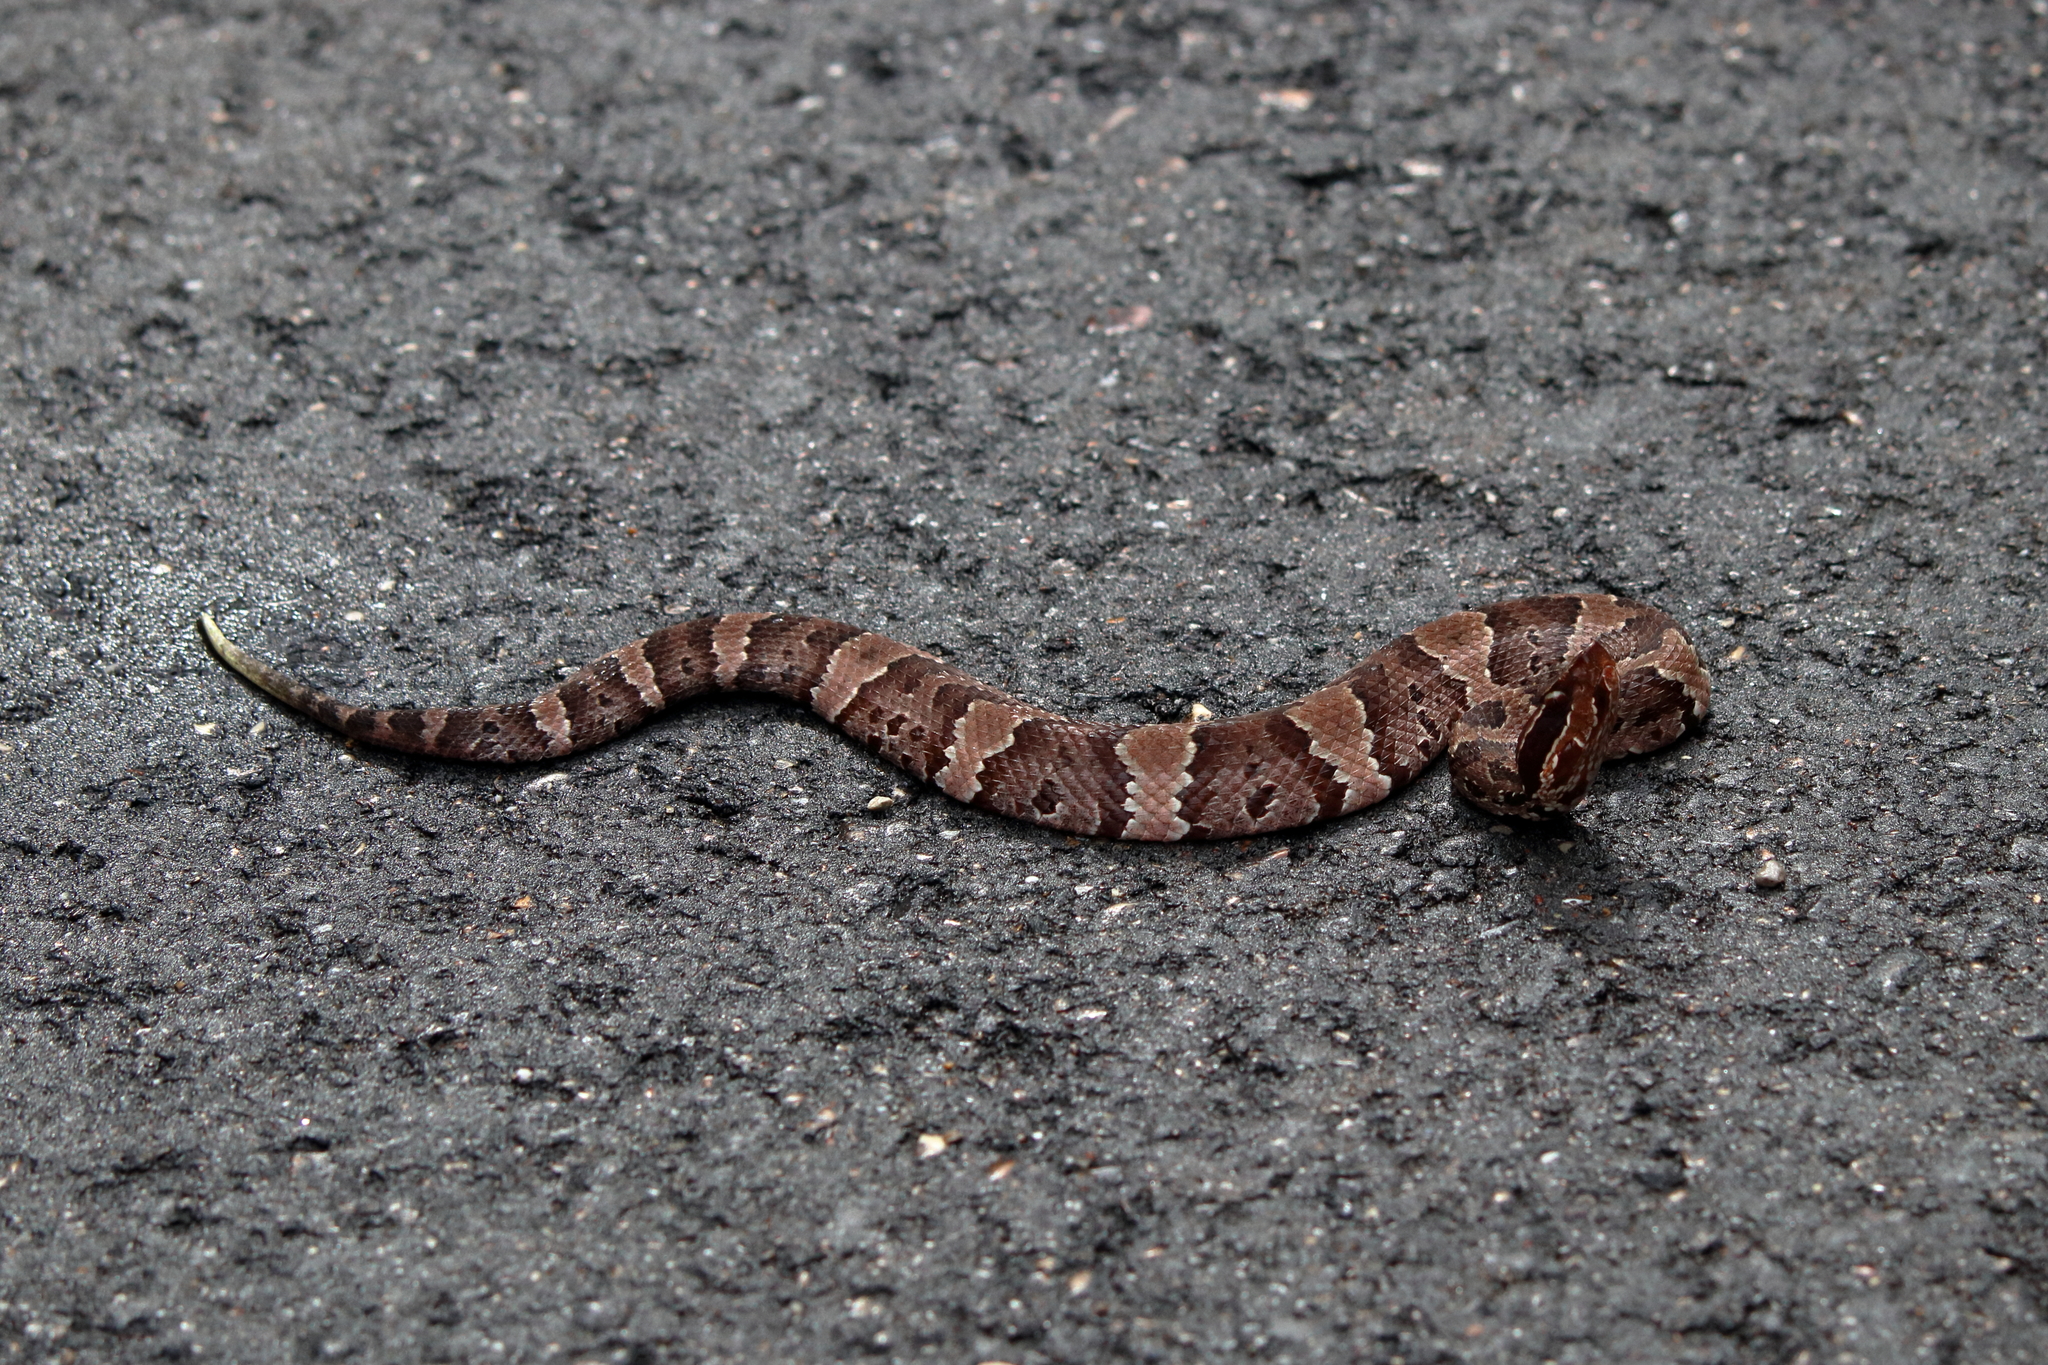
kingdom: Animalia
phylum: Chordata
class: Squamata
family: Viperidae
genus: Agkistrodon
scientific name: Agkistrodon piscivorus
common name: Cottonmouth
